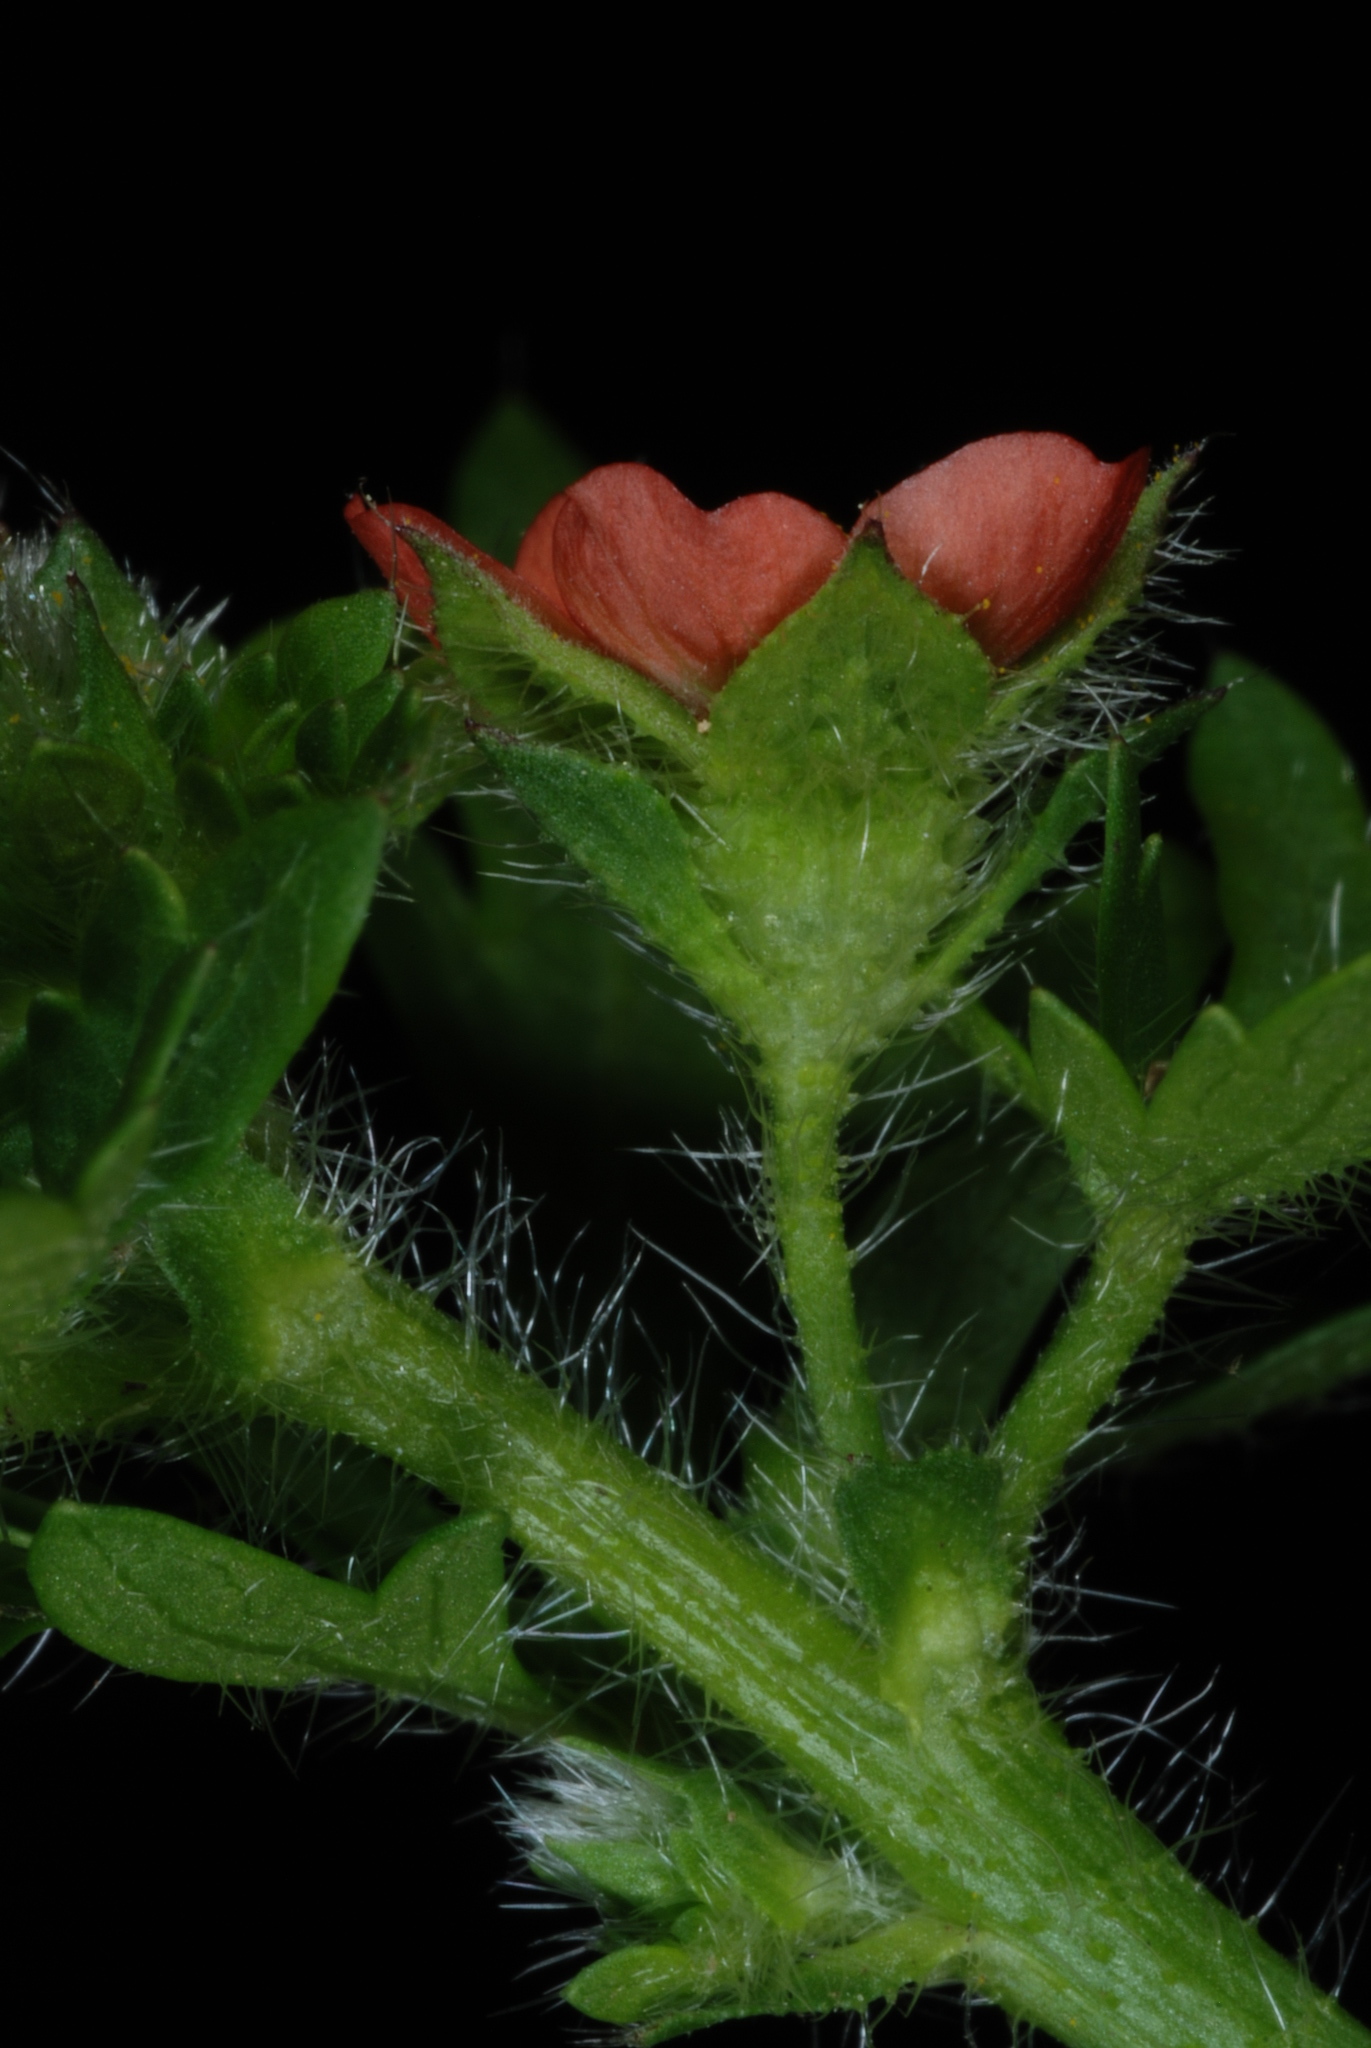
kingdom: Plantae
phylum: Tracheophyta
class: Magnoliopsida
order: Malvales
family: Malvaceae
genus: Modiola
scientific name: Modiola caroliniana
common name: Carolina bristlemallow
